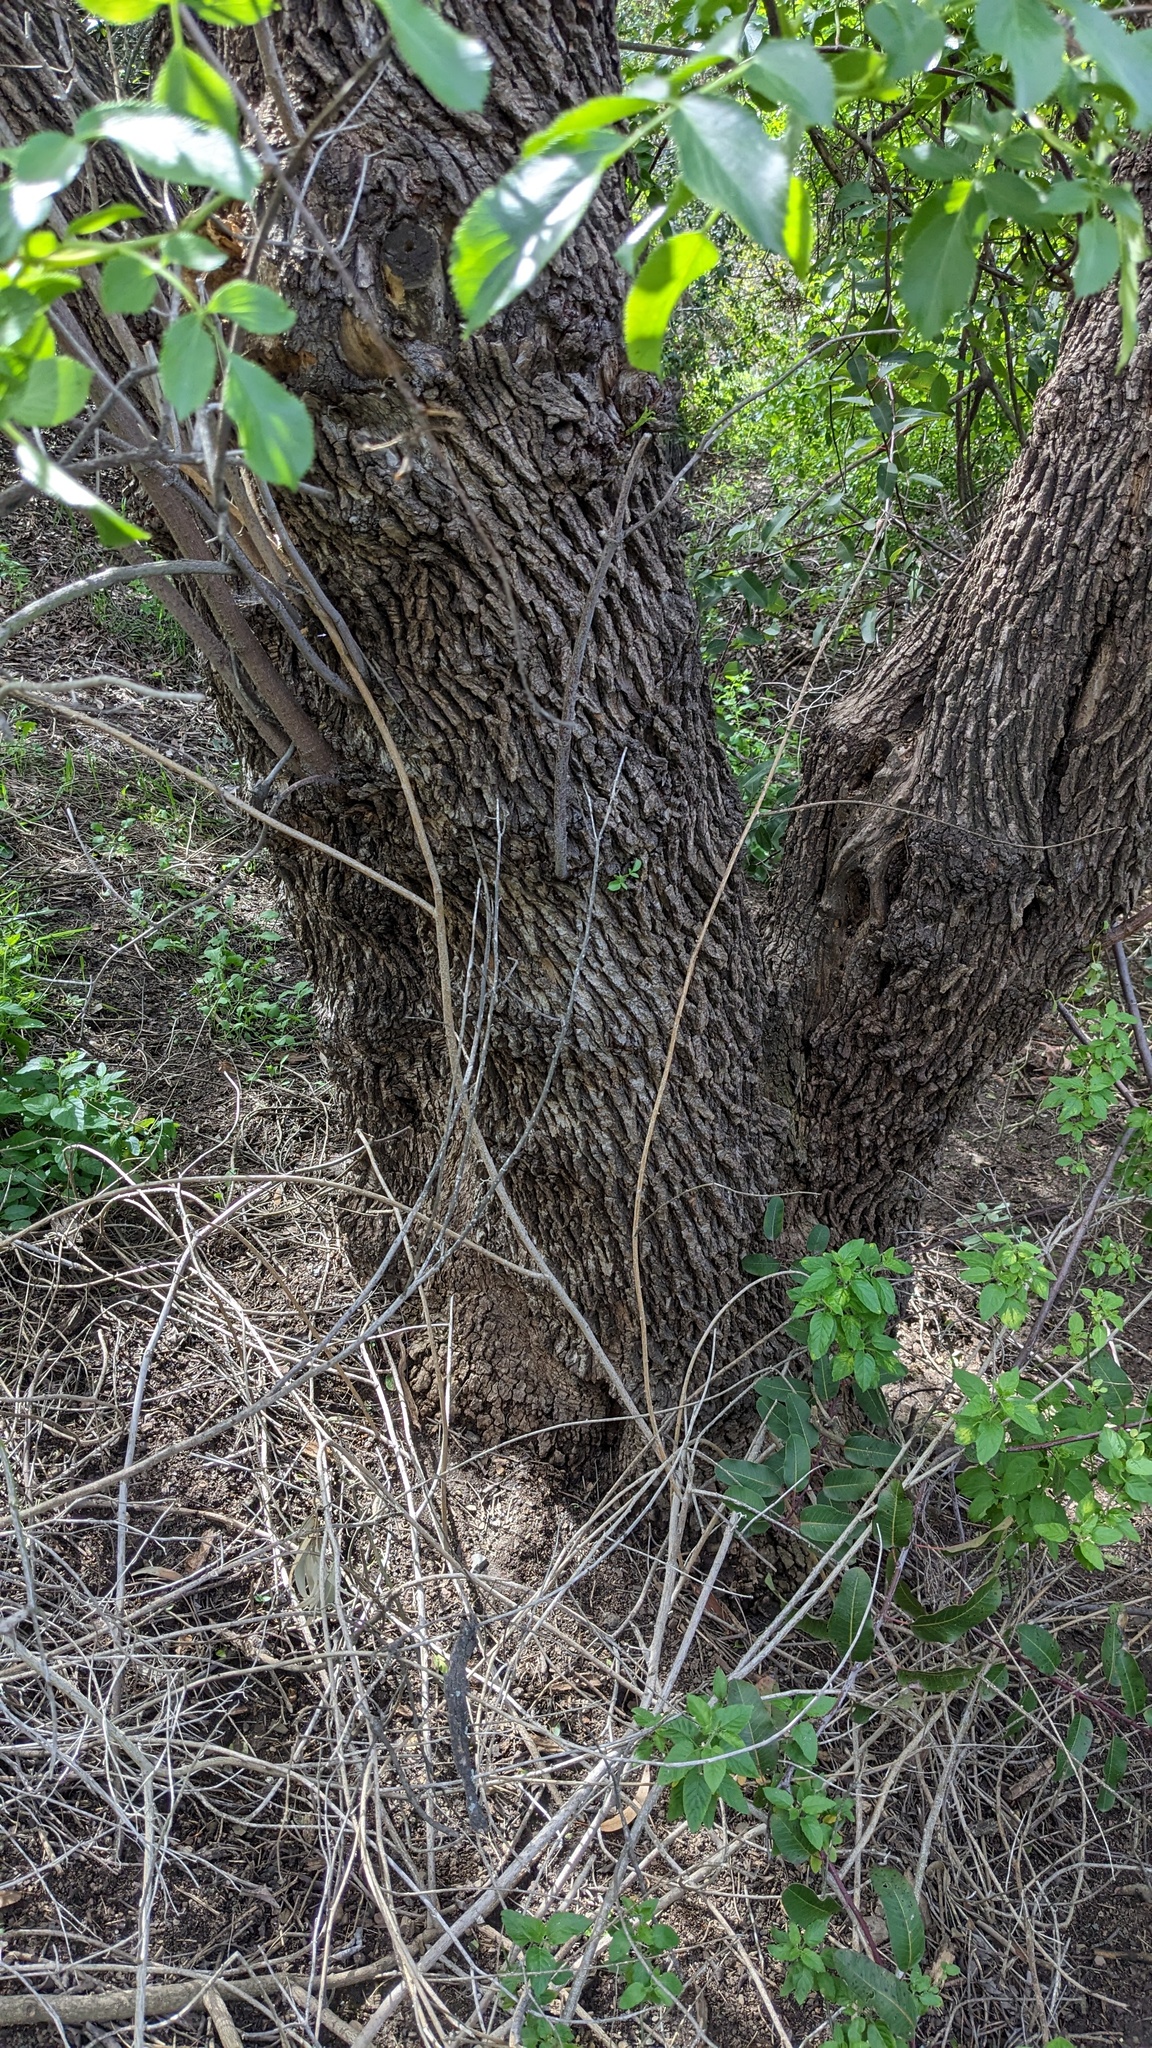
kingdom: Plantae
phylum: Tracheophyta
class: Magnoliopsida
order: Dipsacales
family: Viburnaceae
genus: Sambucus
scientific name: Sambucus cerulea
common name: Blue elder
